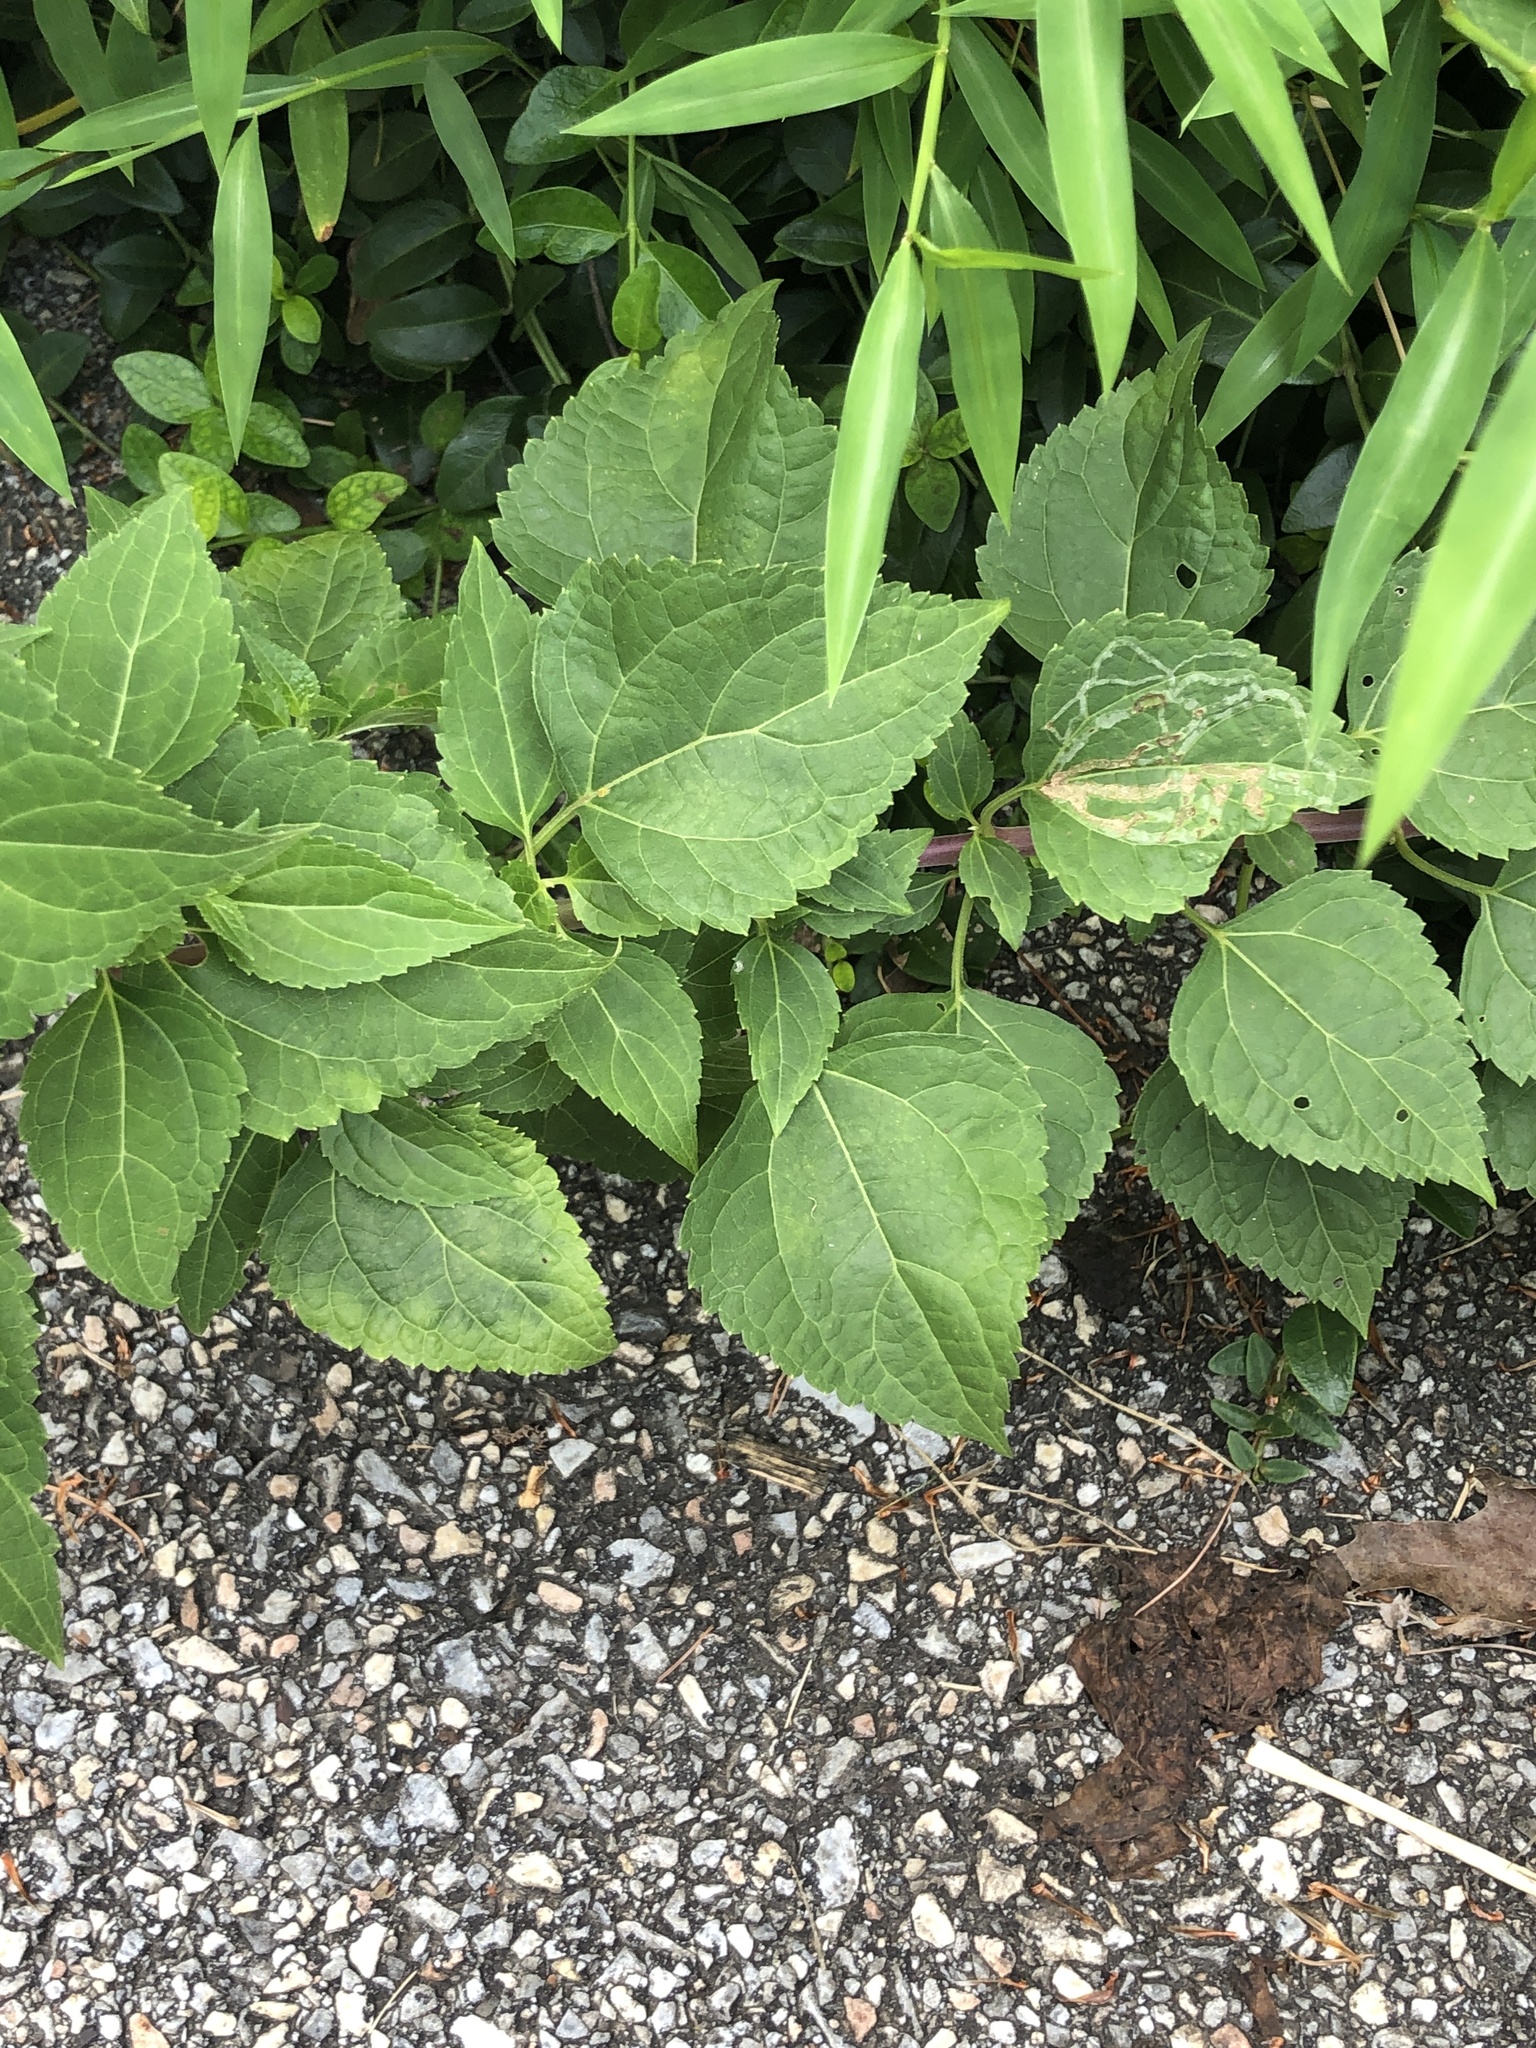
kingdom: Animalia
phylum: Arthropoda
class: Insecta
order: Diptera
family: Agromyzidae
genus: Liriomyza
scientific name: Liriomyza
